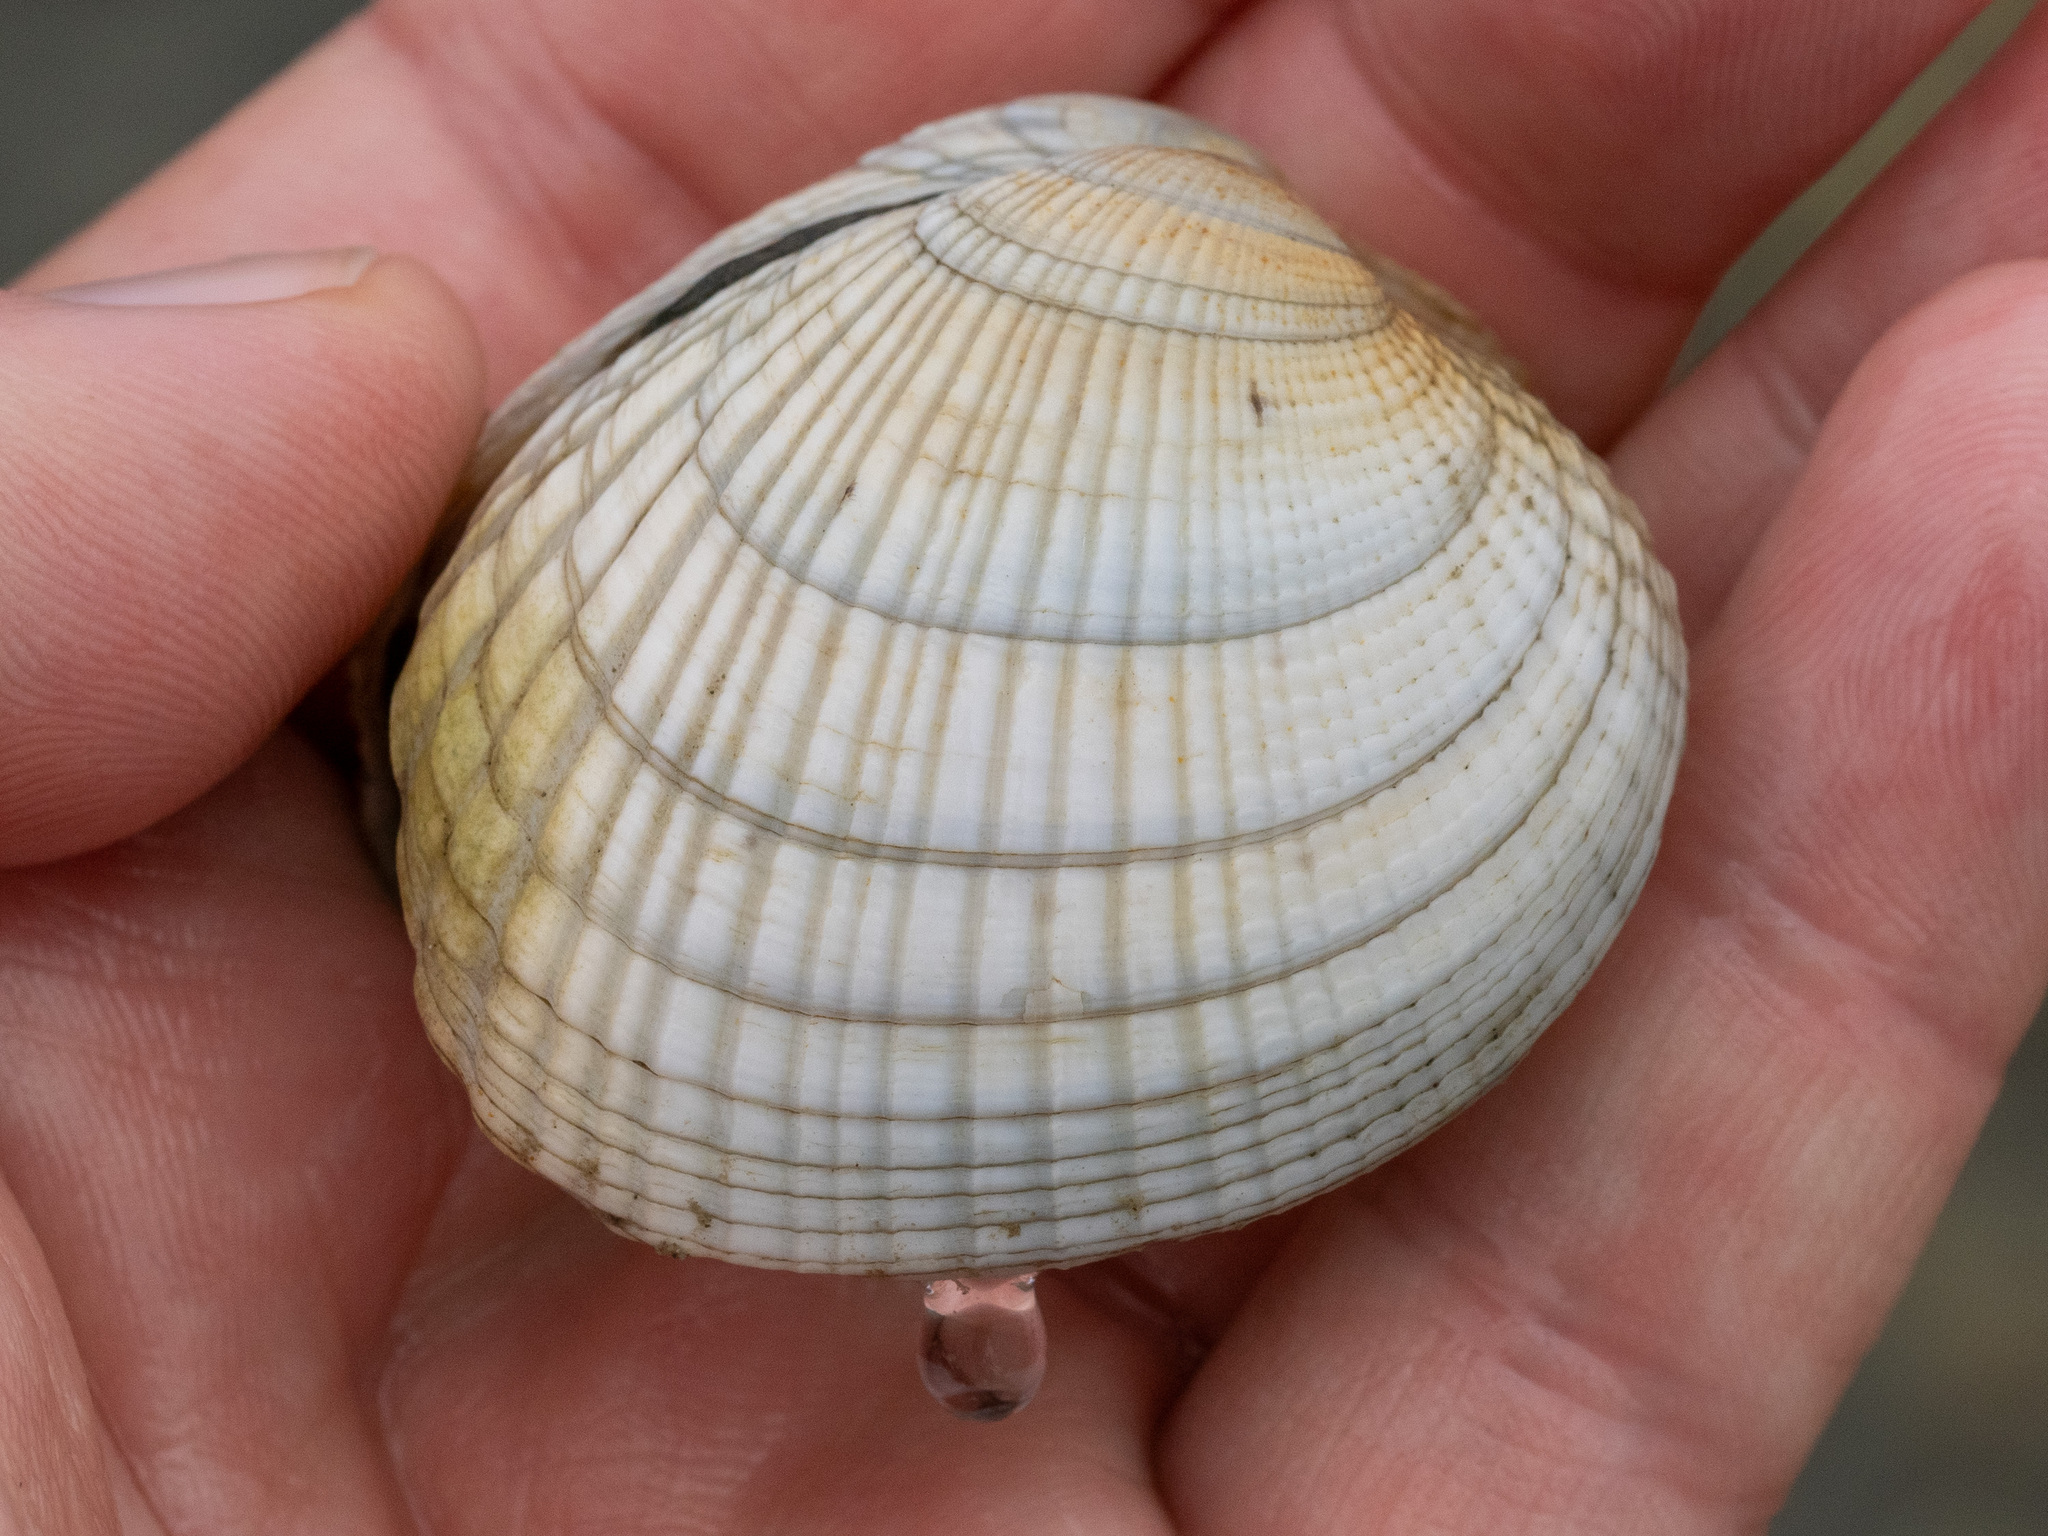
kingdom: Animalia
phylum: Mollusca
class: Bivalvia
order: Venerida
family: Veneridae
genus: Leukoma
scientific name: Leukoma crassicosta
